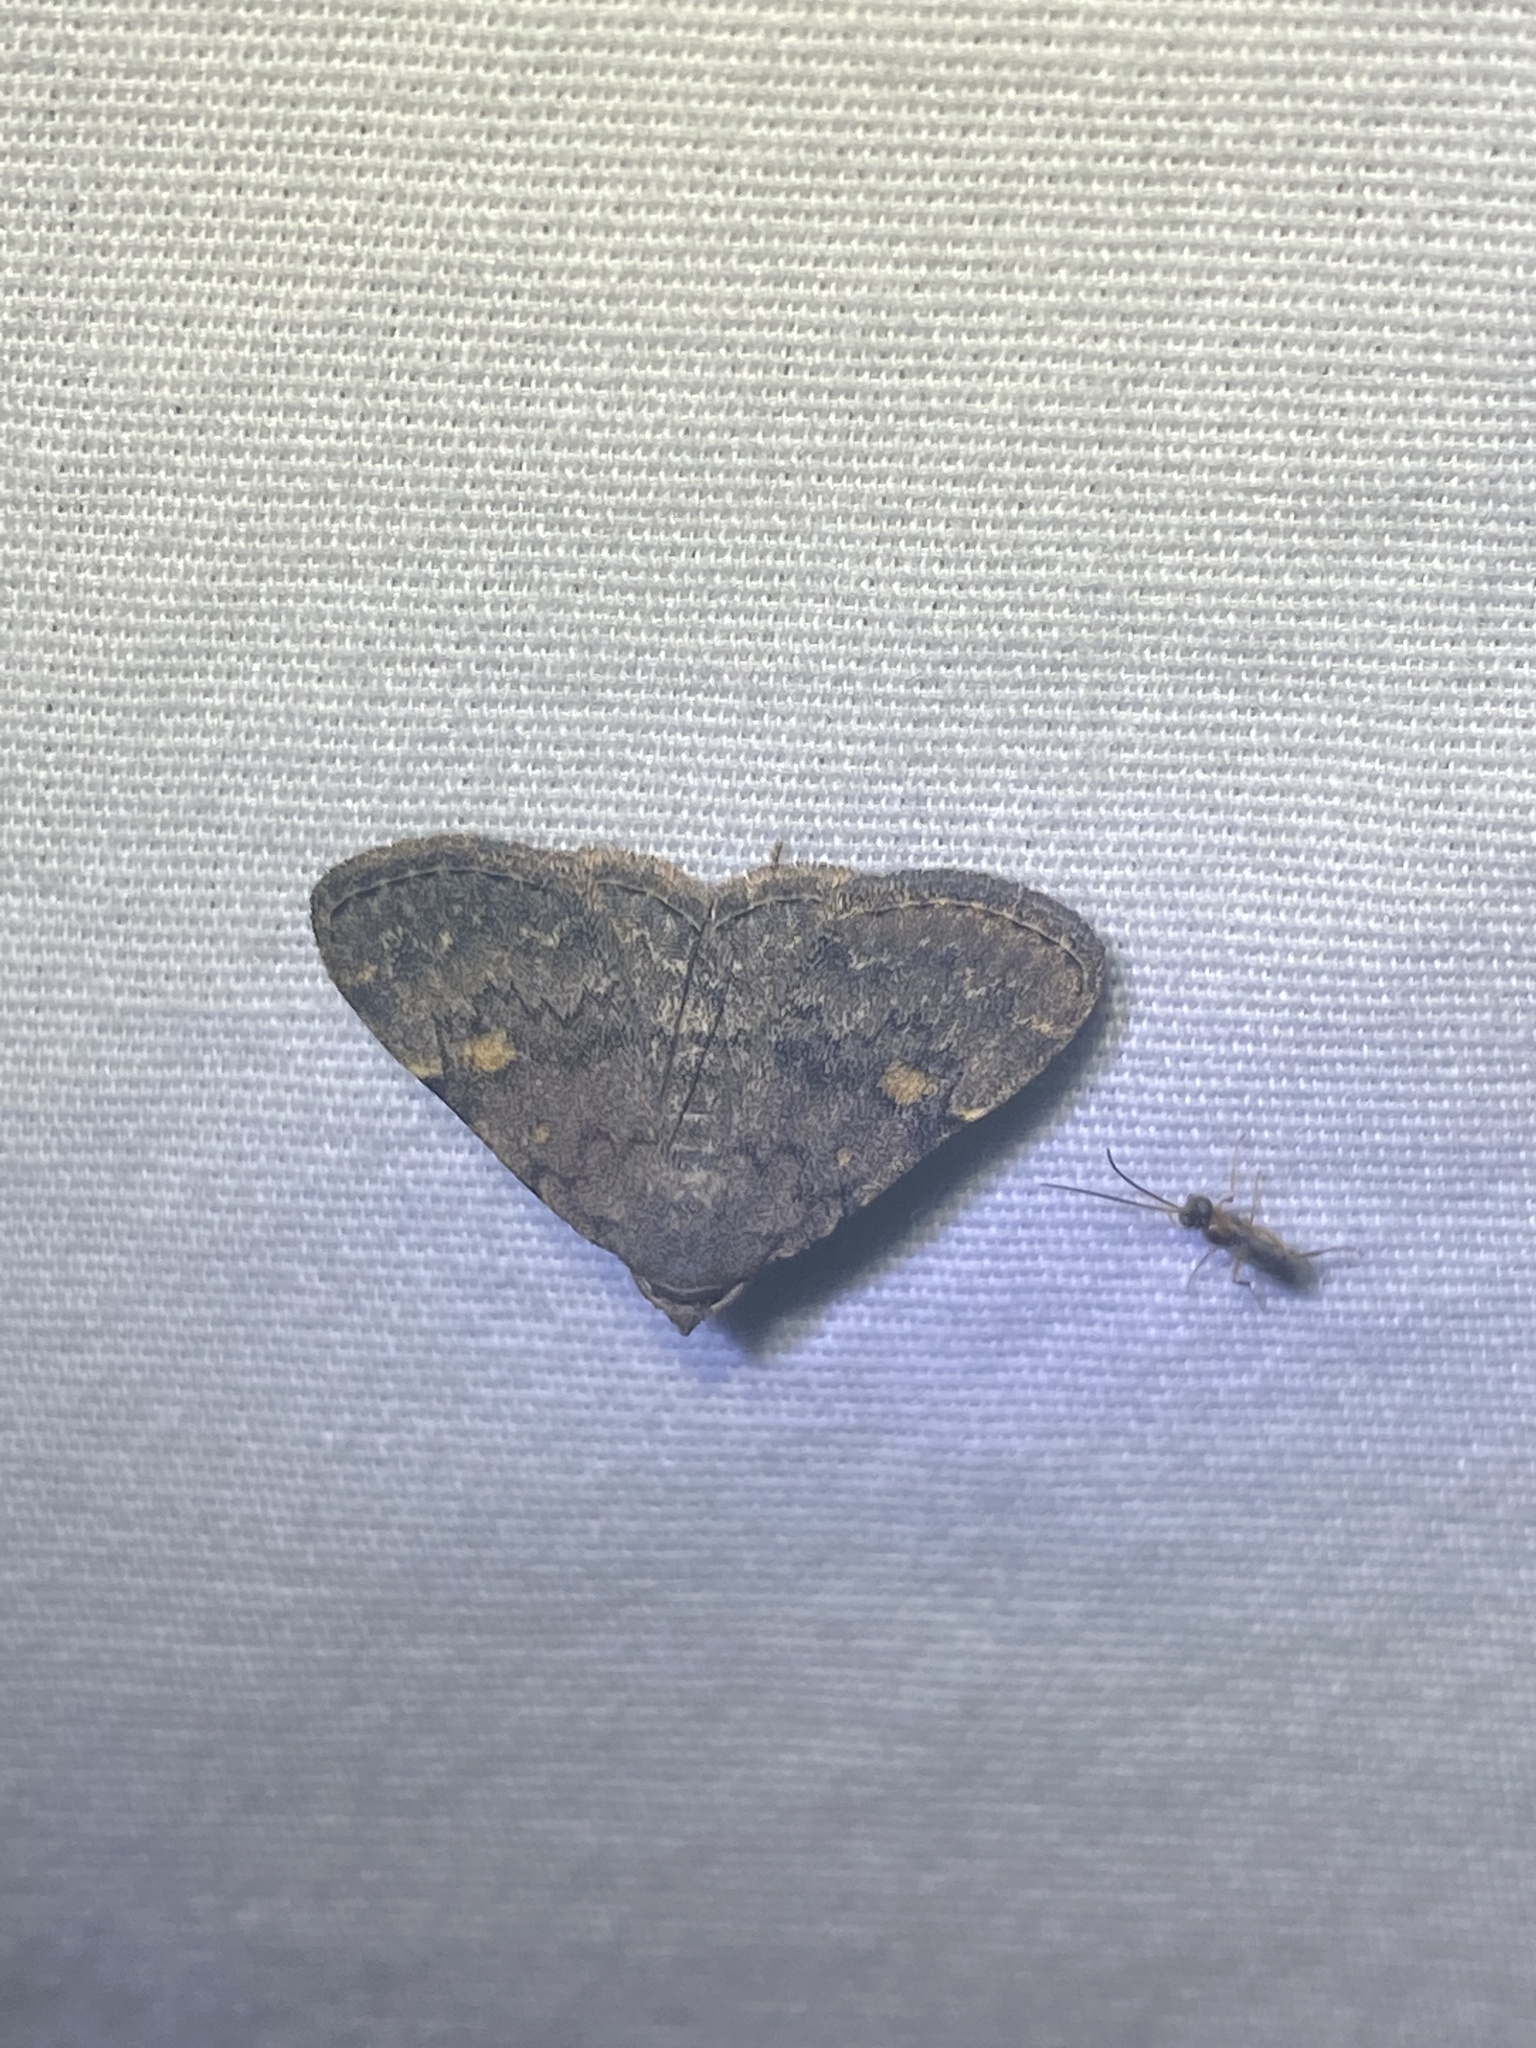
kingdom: Animalia
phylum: Arthropoda
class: Insecta
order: Lepidoptera
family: Erebidae
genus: Idia
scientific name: Idia aemula
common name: Common idia moth
